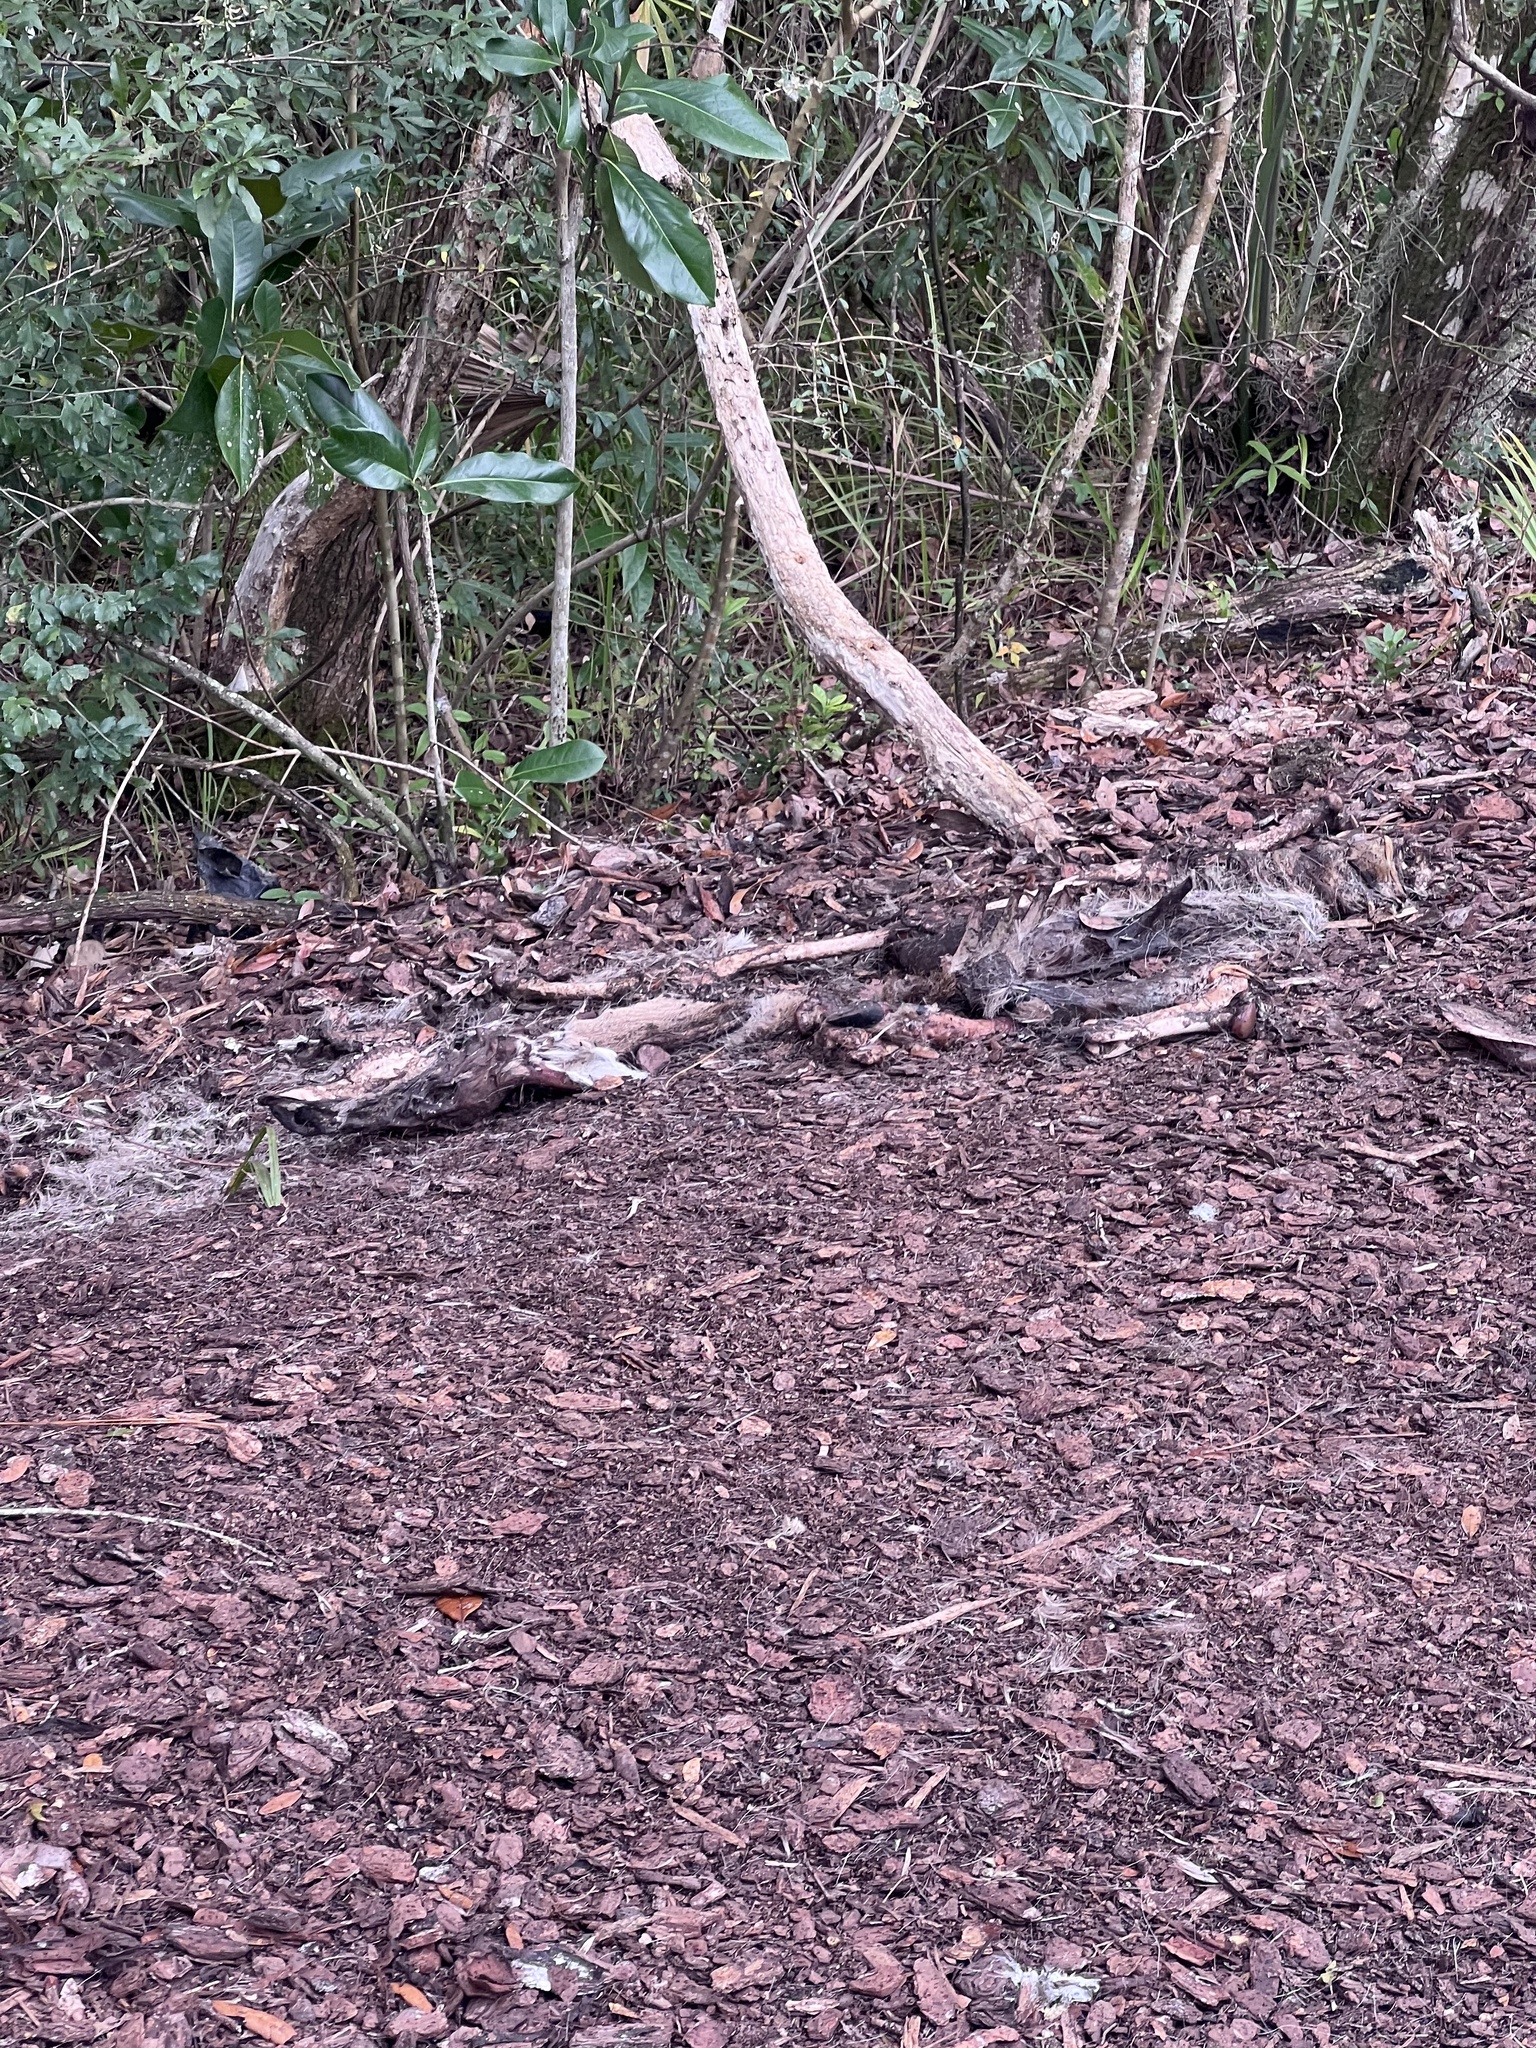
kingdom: Animalia
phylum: Chordata
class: Mammalia
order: Artiodactyla
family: Cervidae
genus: Odocoileus
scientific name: Odocoileus virginianus
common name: White-tailed deer
